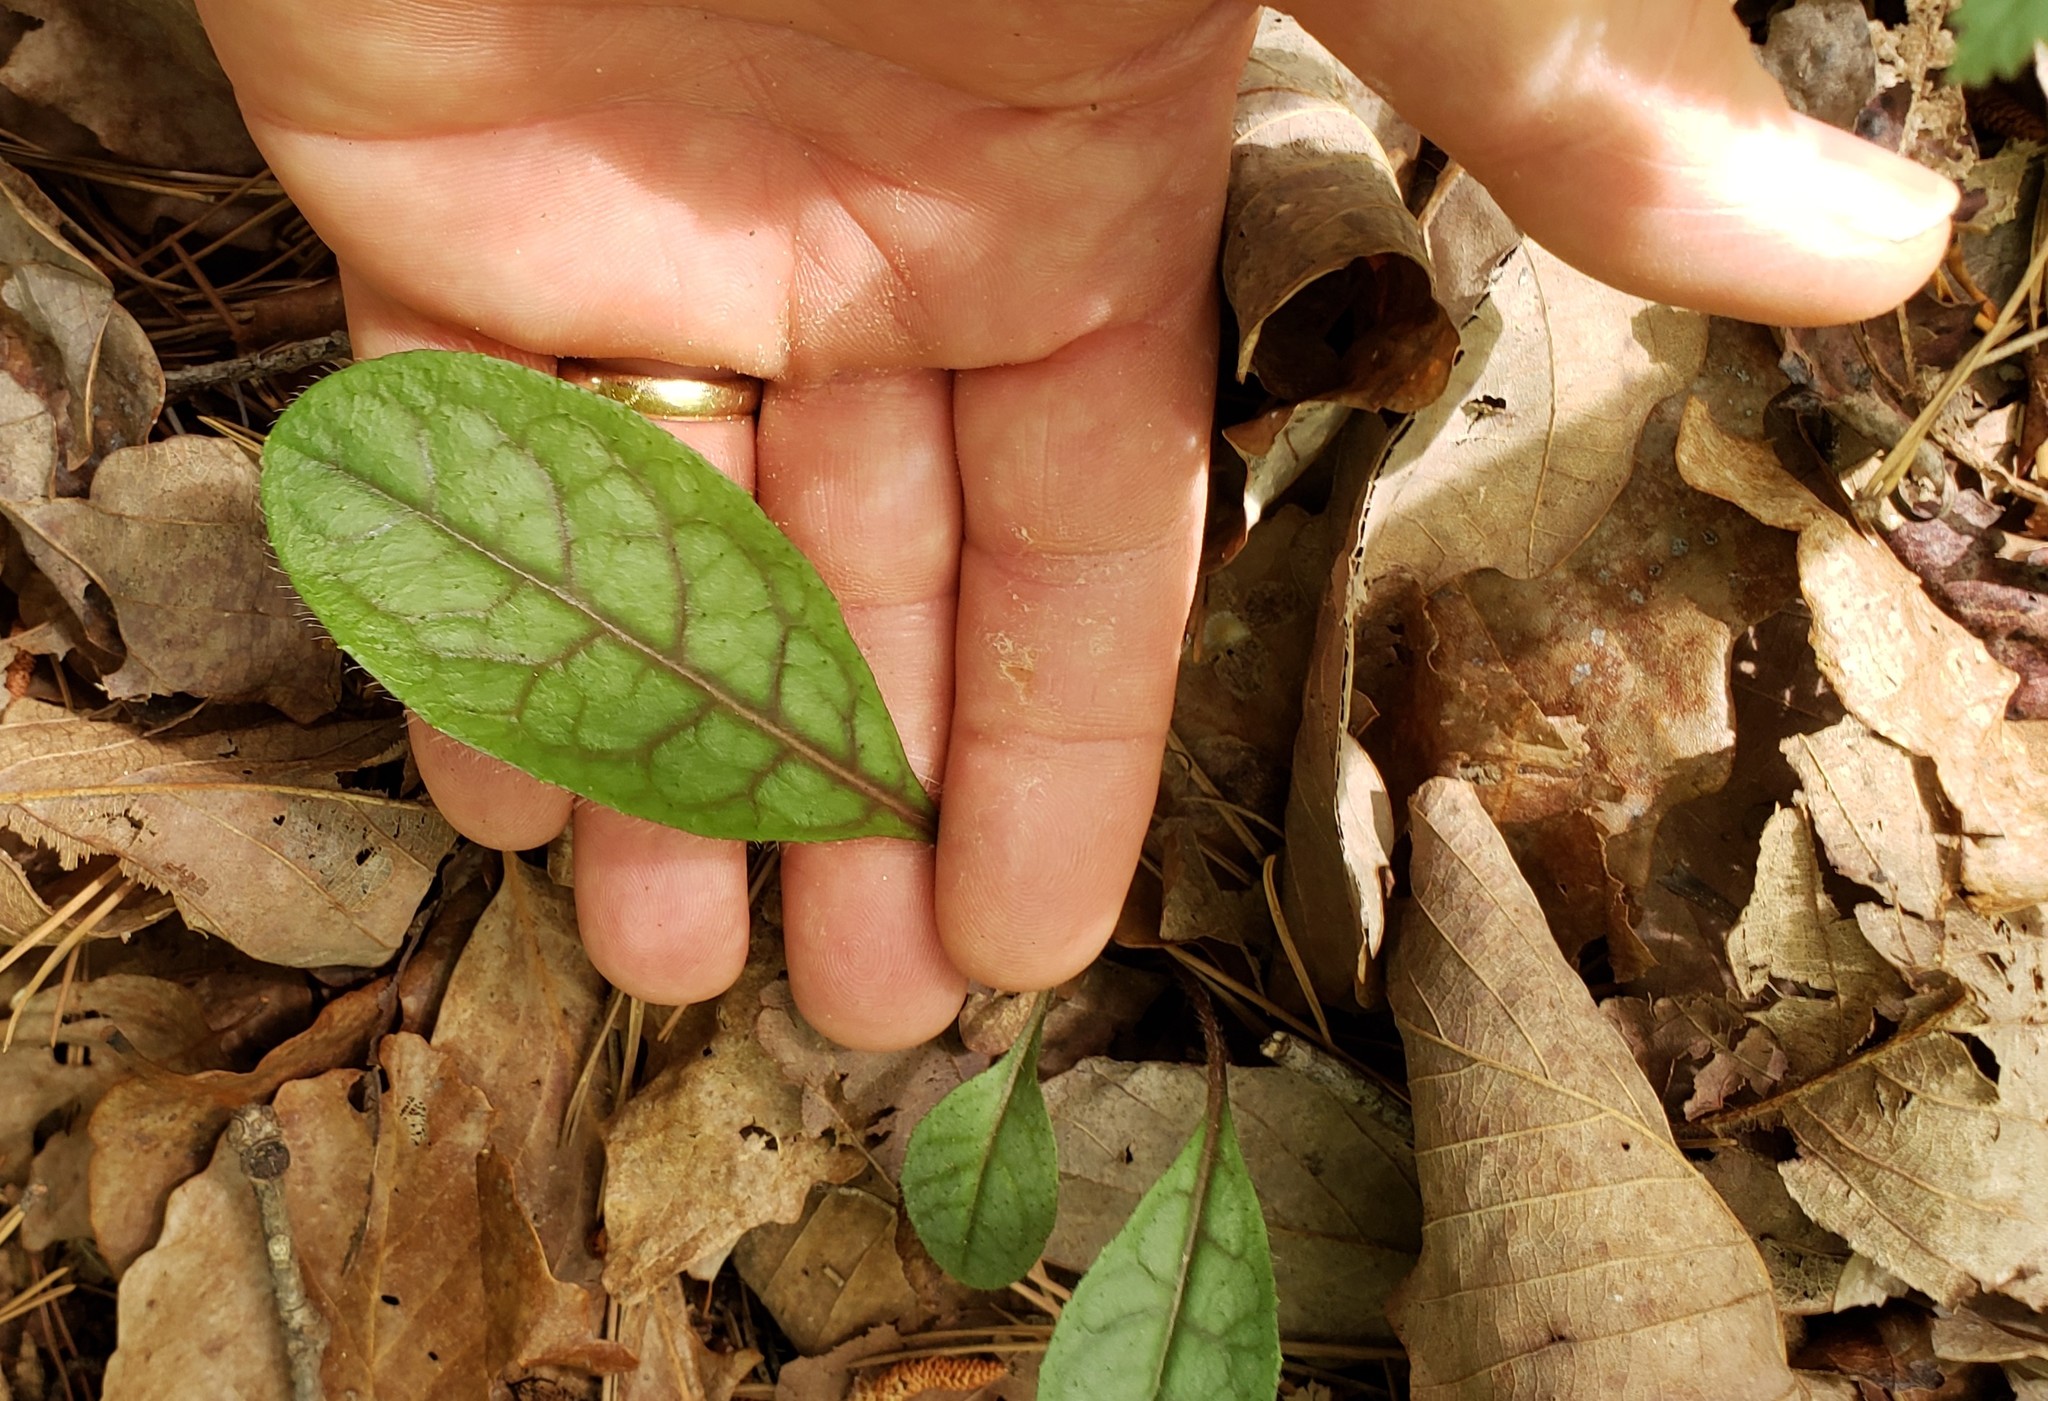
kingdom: Plantae
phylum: Tracheophyta
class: Magnoliopsida
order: Asterales
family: Asteraceae
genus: Hieracium
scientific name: Hieracium venosum
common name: Rattlesnake hawkweed
